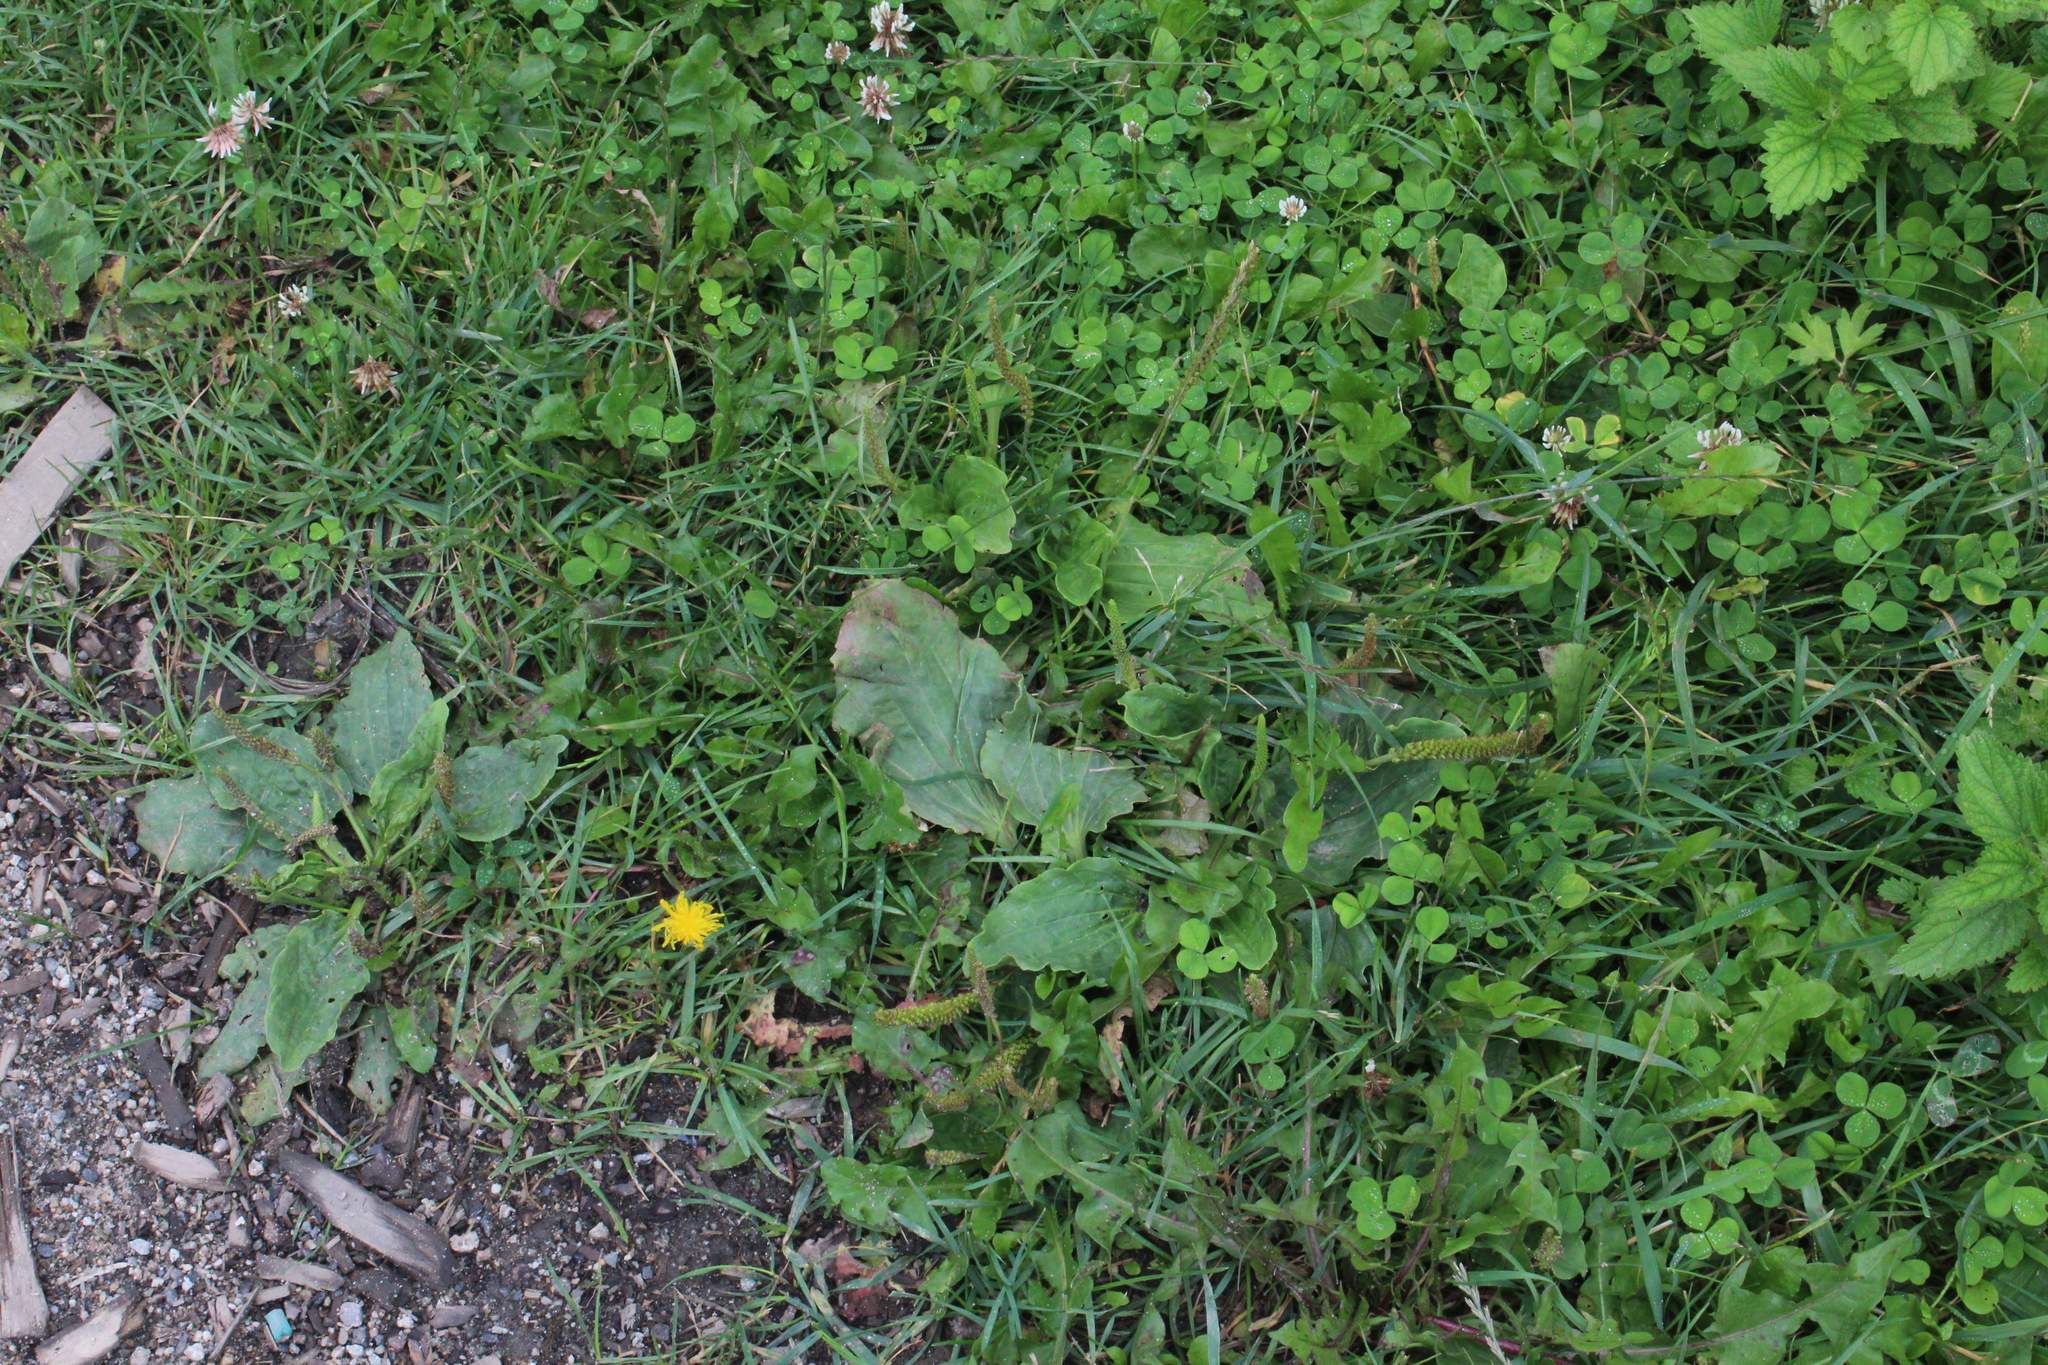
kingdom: Plantae
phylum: Tracheophyta
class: Magnoliopsida
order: Lamiales
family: Plantaginaceae
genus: Plantago
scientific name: Plantago major
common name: Common plantain
